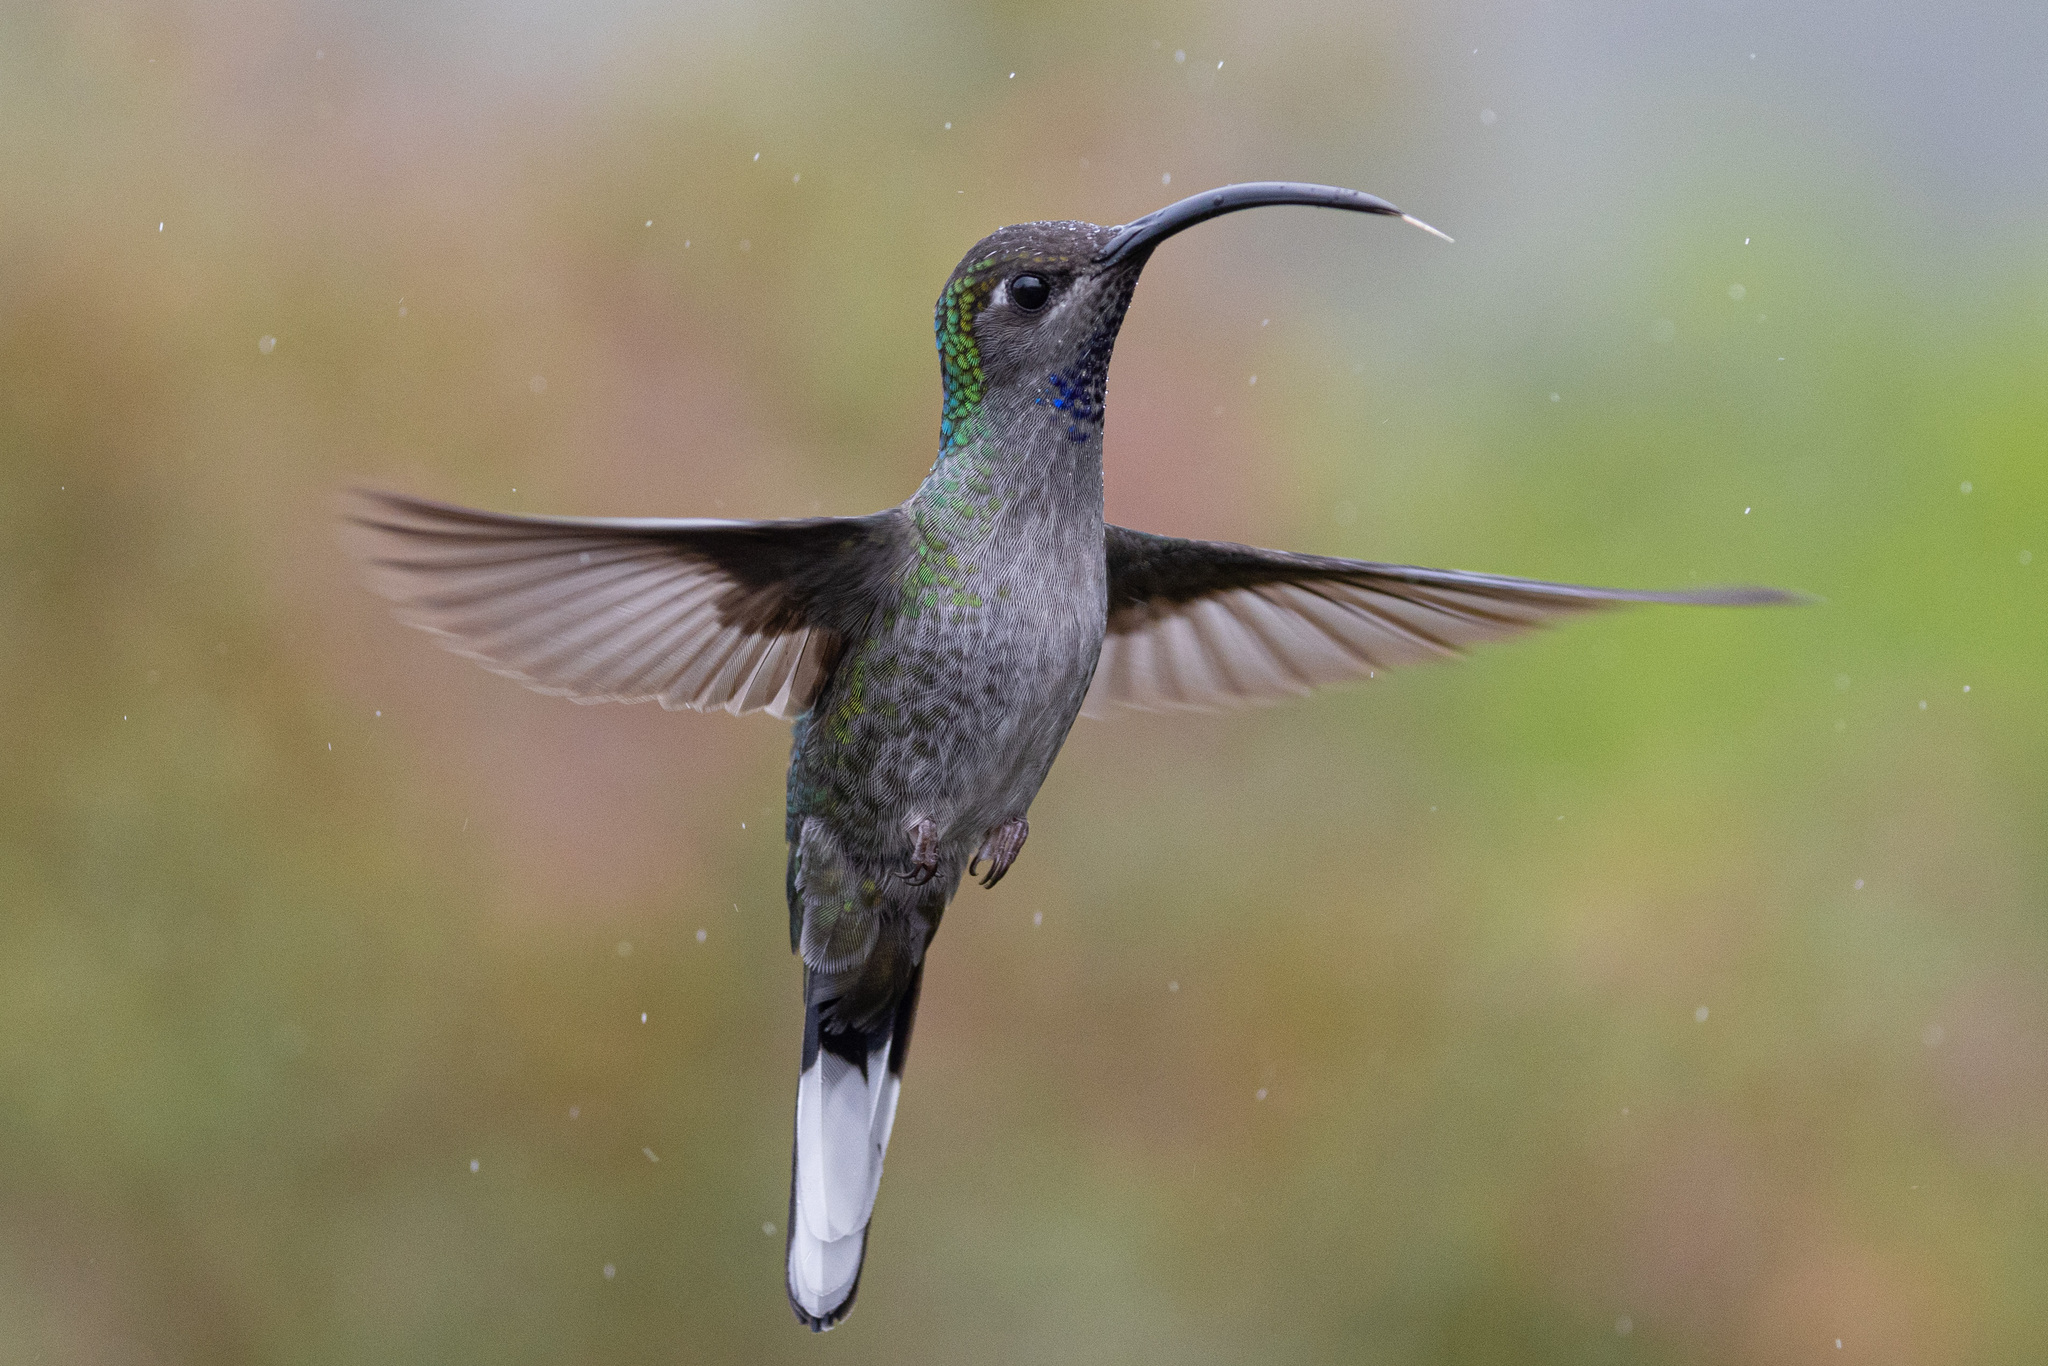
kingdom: Animalia
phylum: Chordata
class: Aves
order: Apodiformes
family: Trochilidae
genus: Campylopterus
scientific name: Campylopterus hemileucurus
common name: Violet sabrewing
